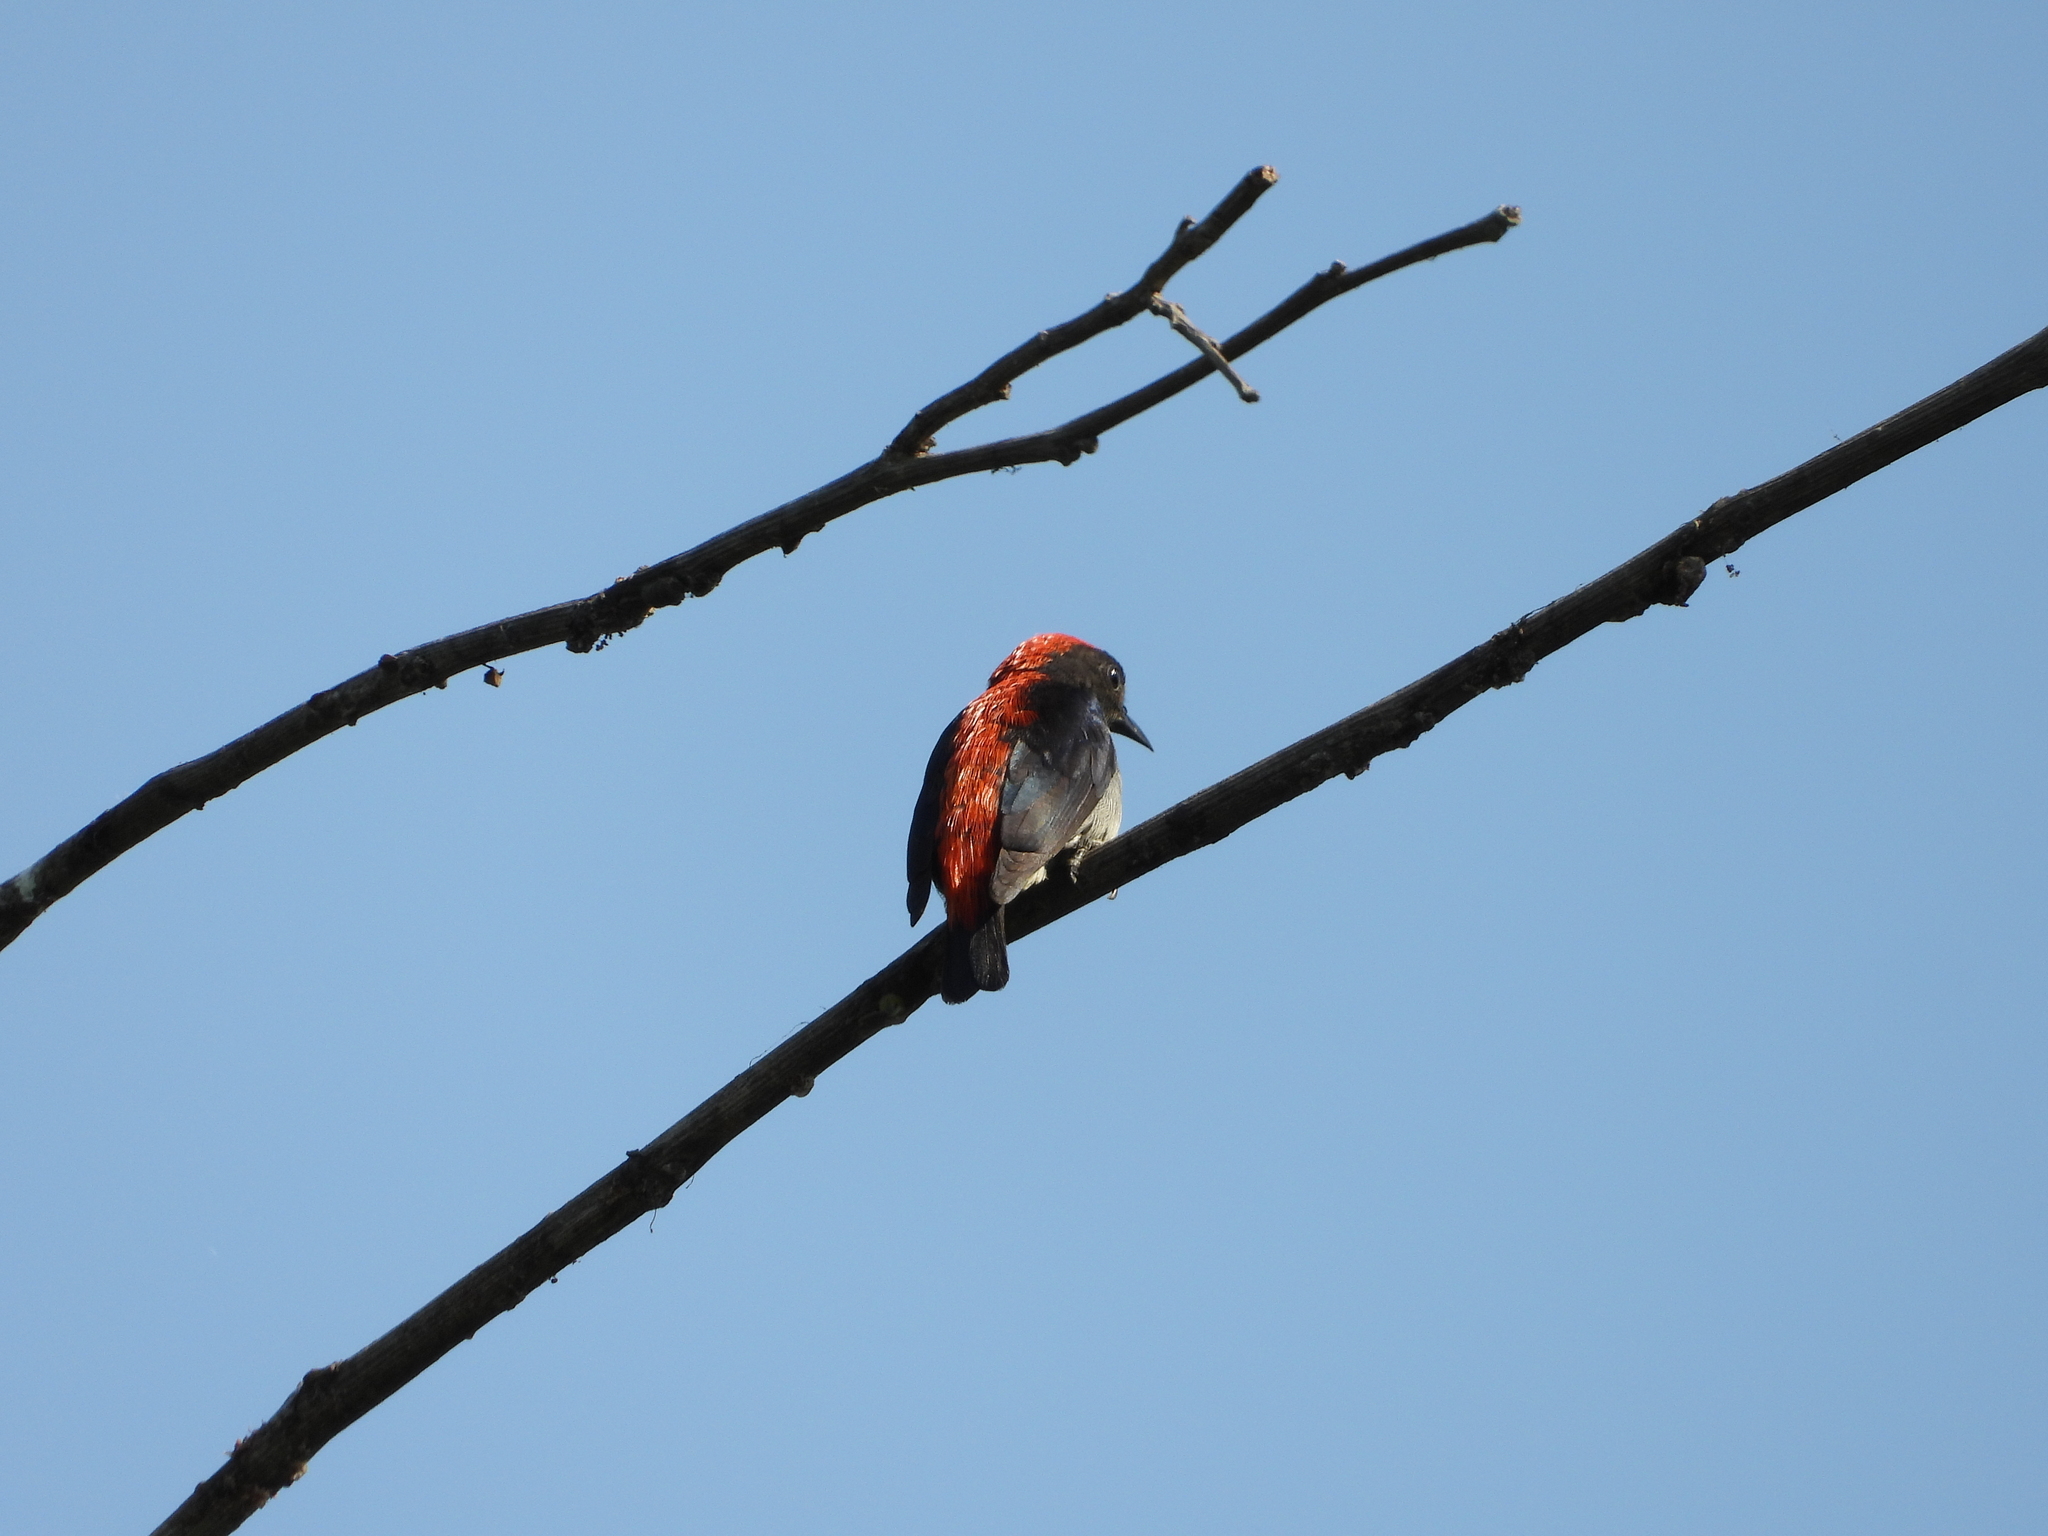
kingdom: Animalia
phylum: Chordata
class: Aves
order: Passeriformes
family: Dicaeidae
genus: Dicaeum
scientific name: Dicaeum cruentatum
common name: Scarlet-backed flowerpecker
